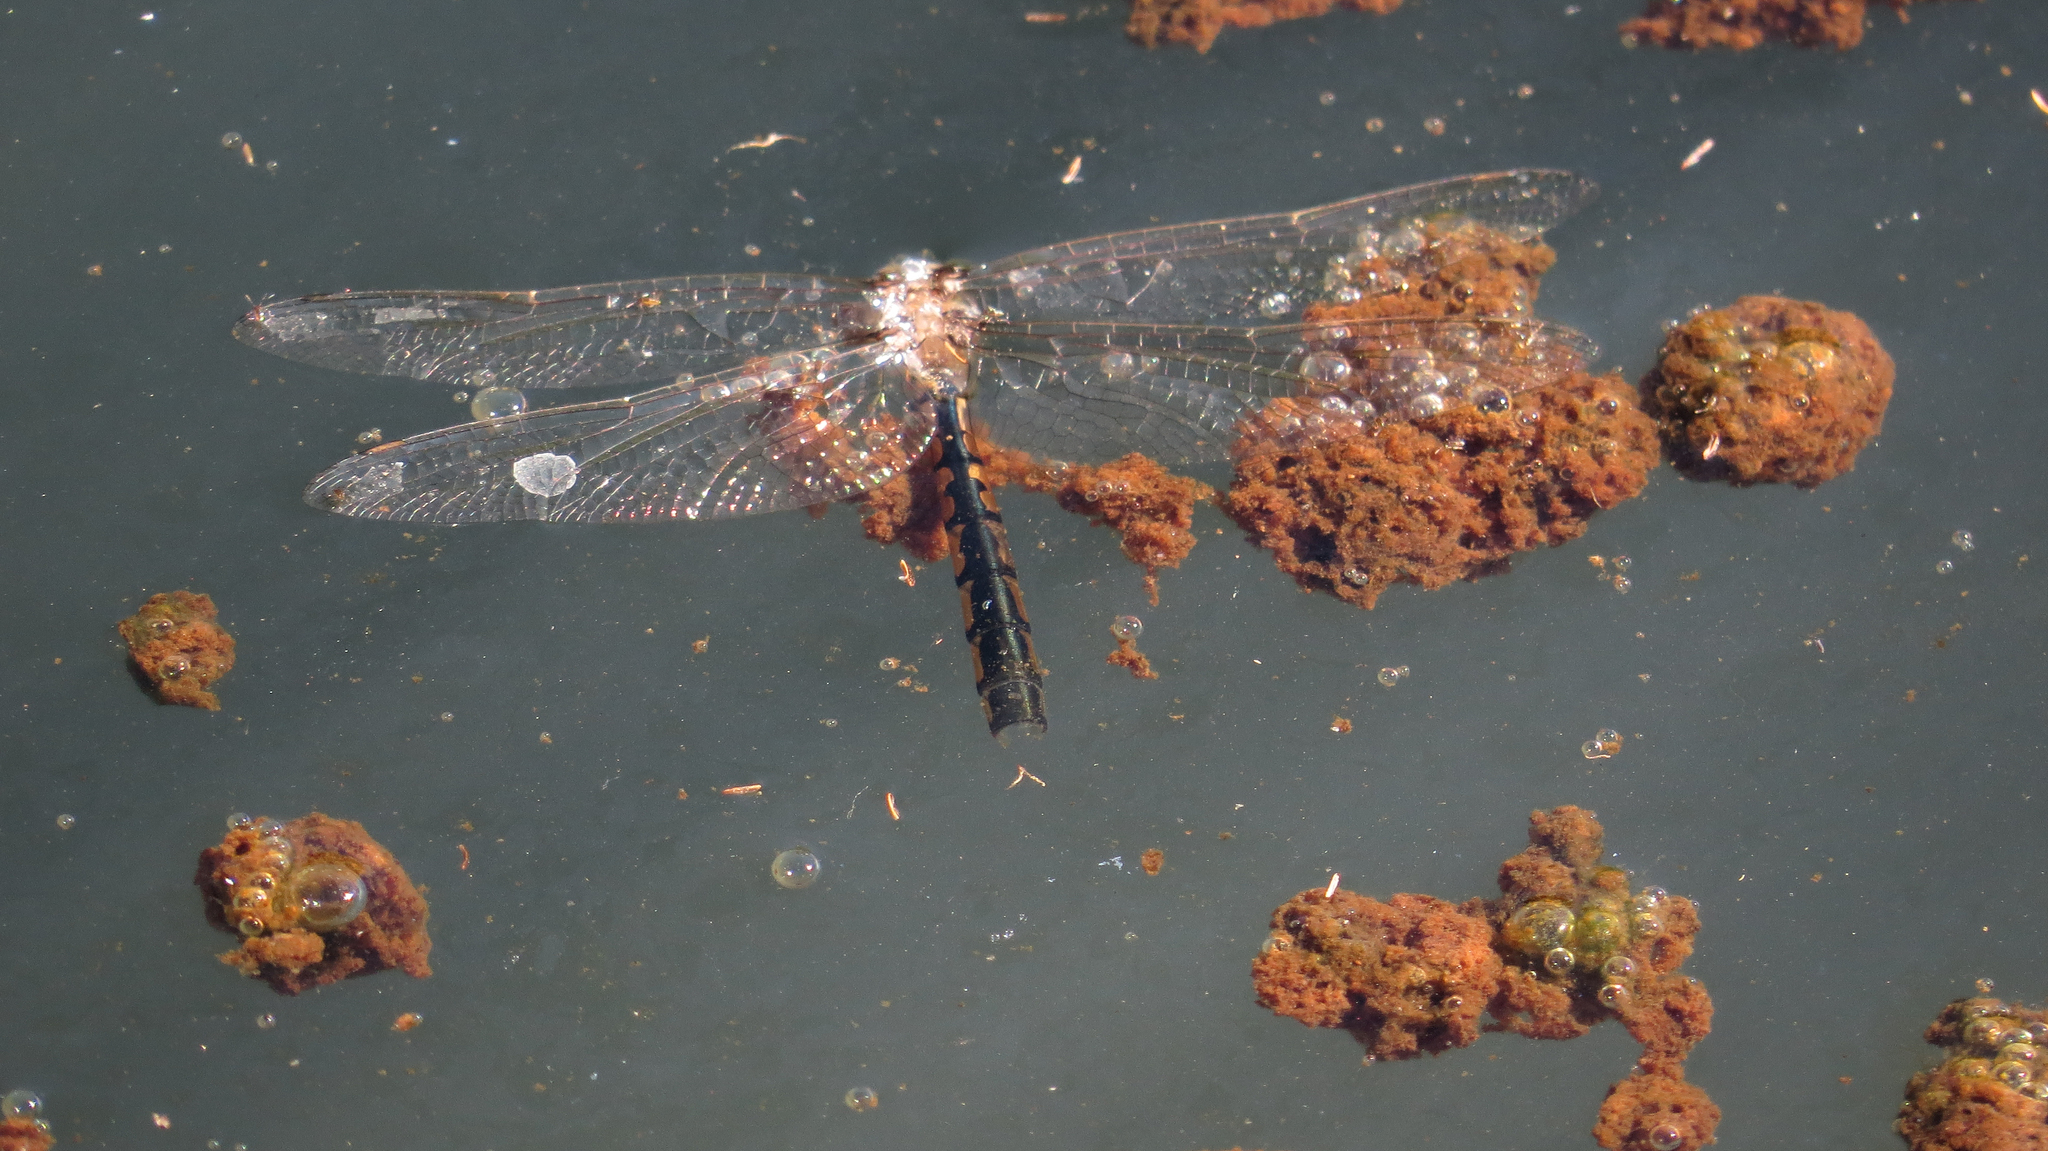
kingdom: Animalia
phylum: Arthropoda
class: Insecta
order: Odonata
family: Corduliidae
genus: Hemicordulia
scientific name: Hemicordulia tau
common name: Tau emerald
